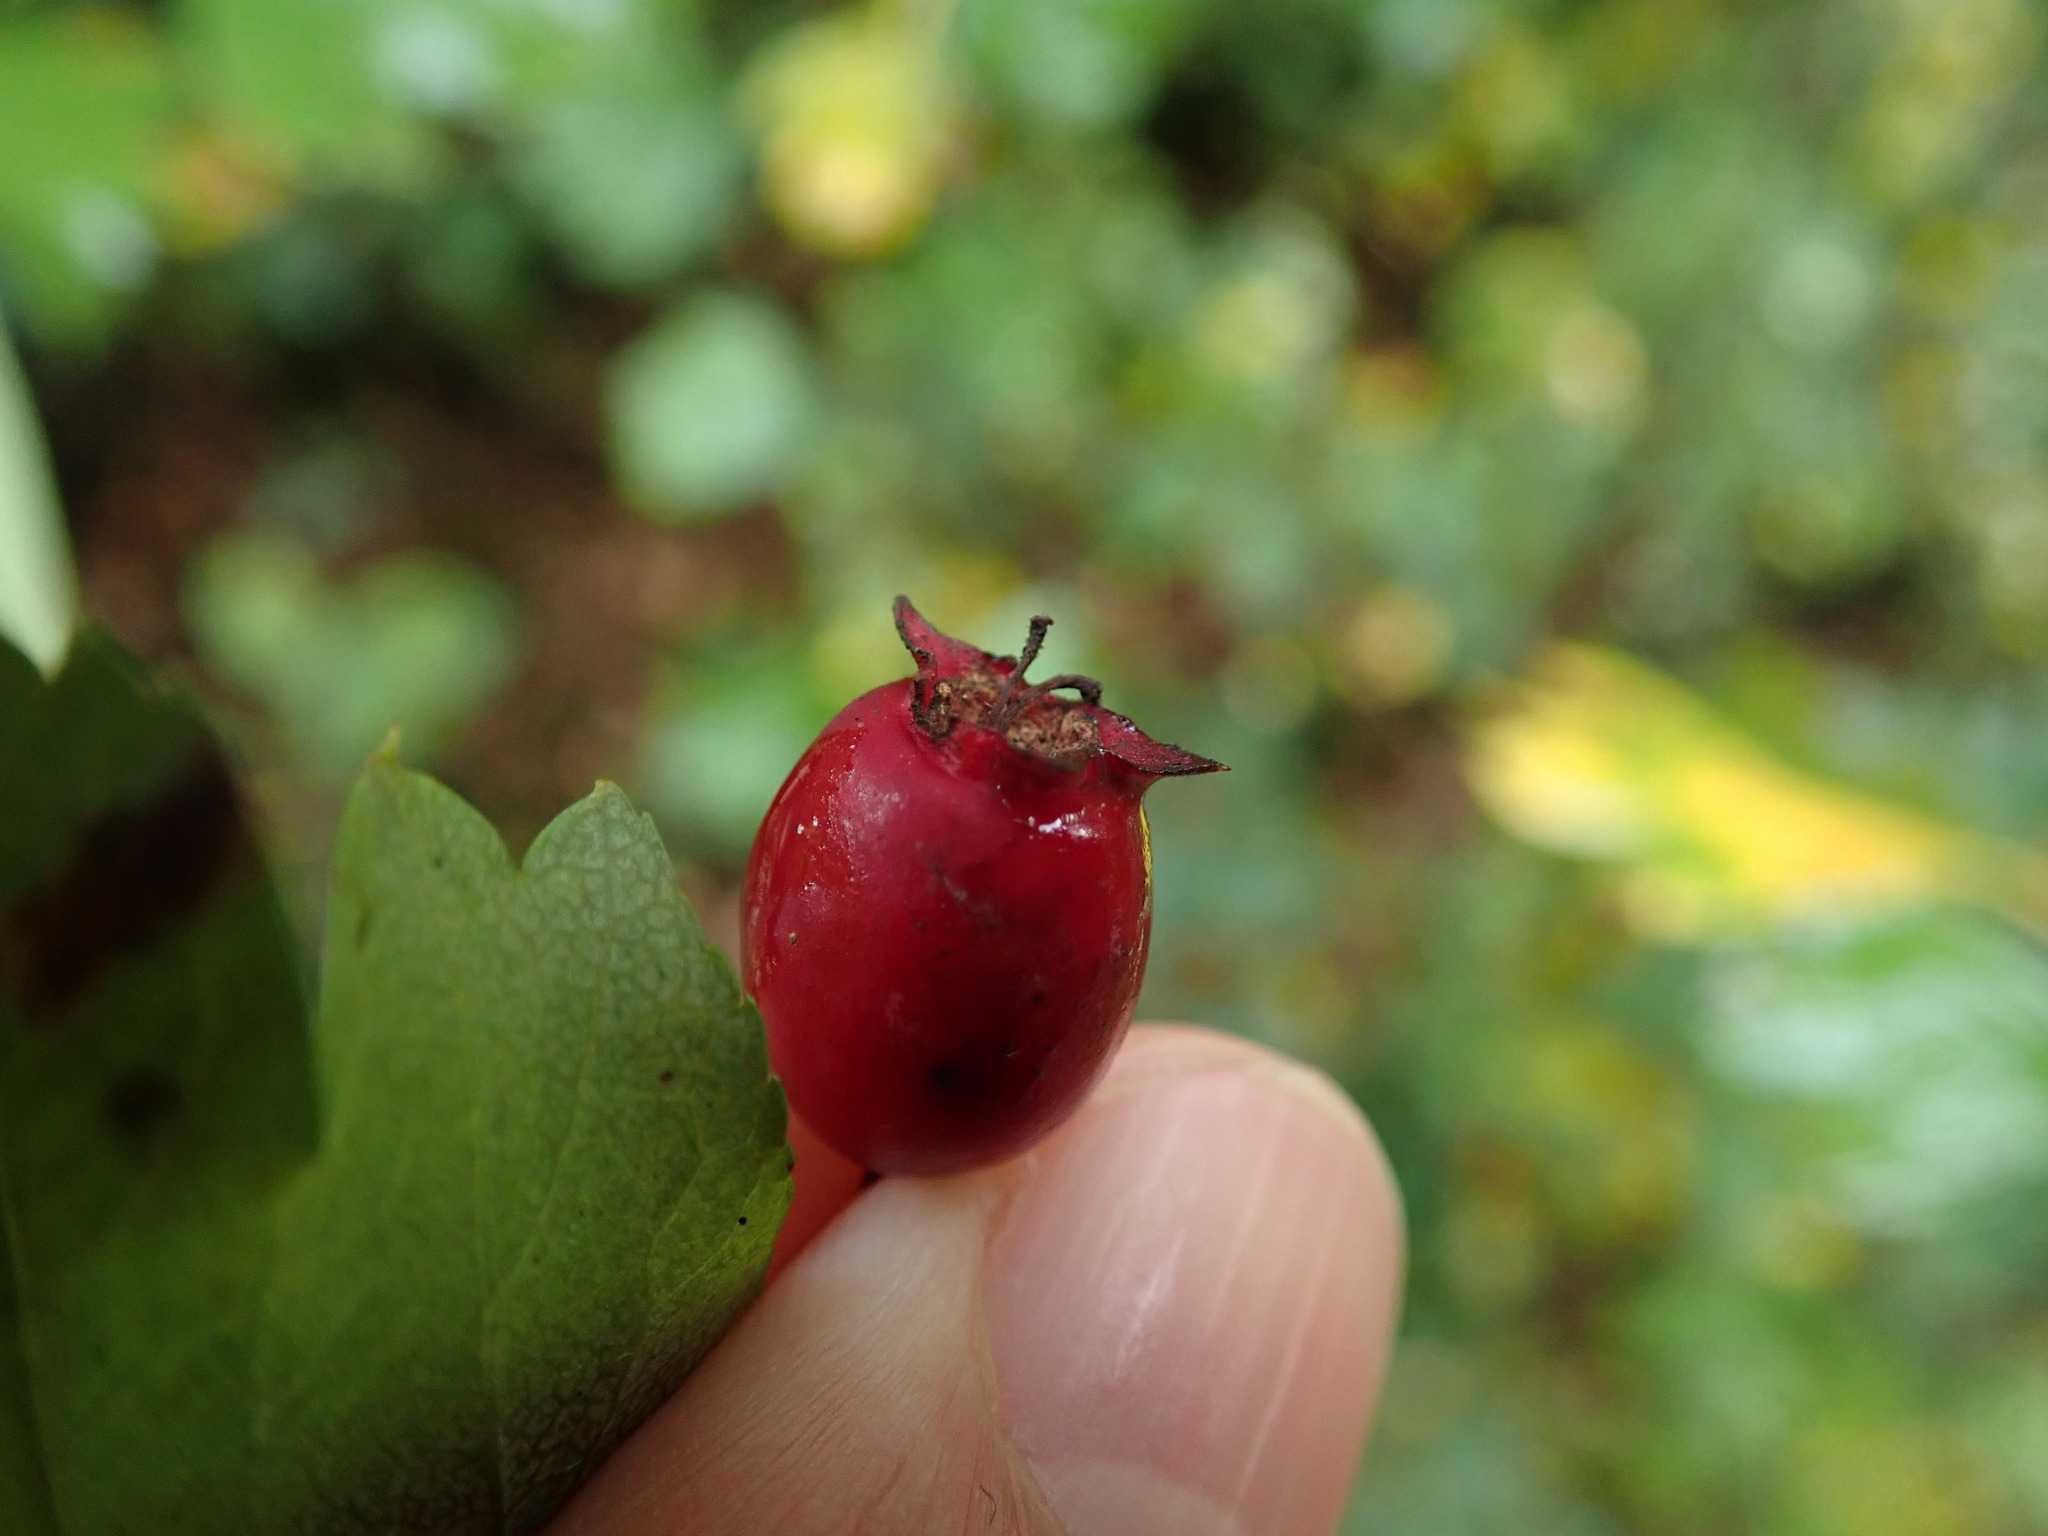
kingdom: Plantae
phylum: Tracheophyta
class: Magnoliopsida
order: Rosales
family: Rosaceae
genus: Crataegus
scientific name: Crataegus laevigata
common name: Midland hawthorn
